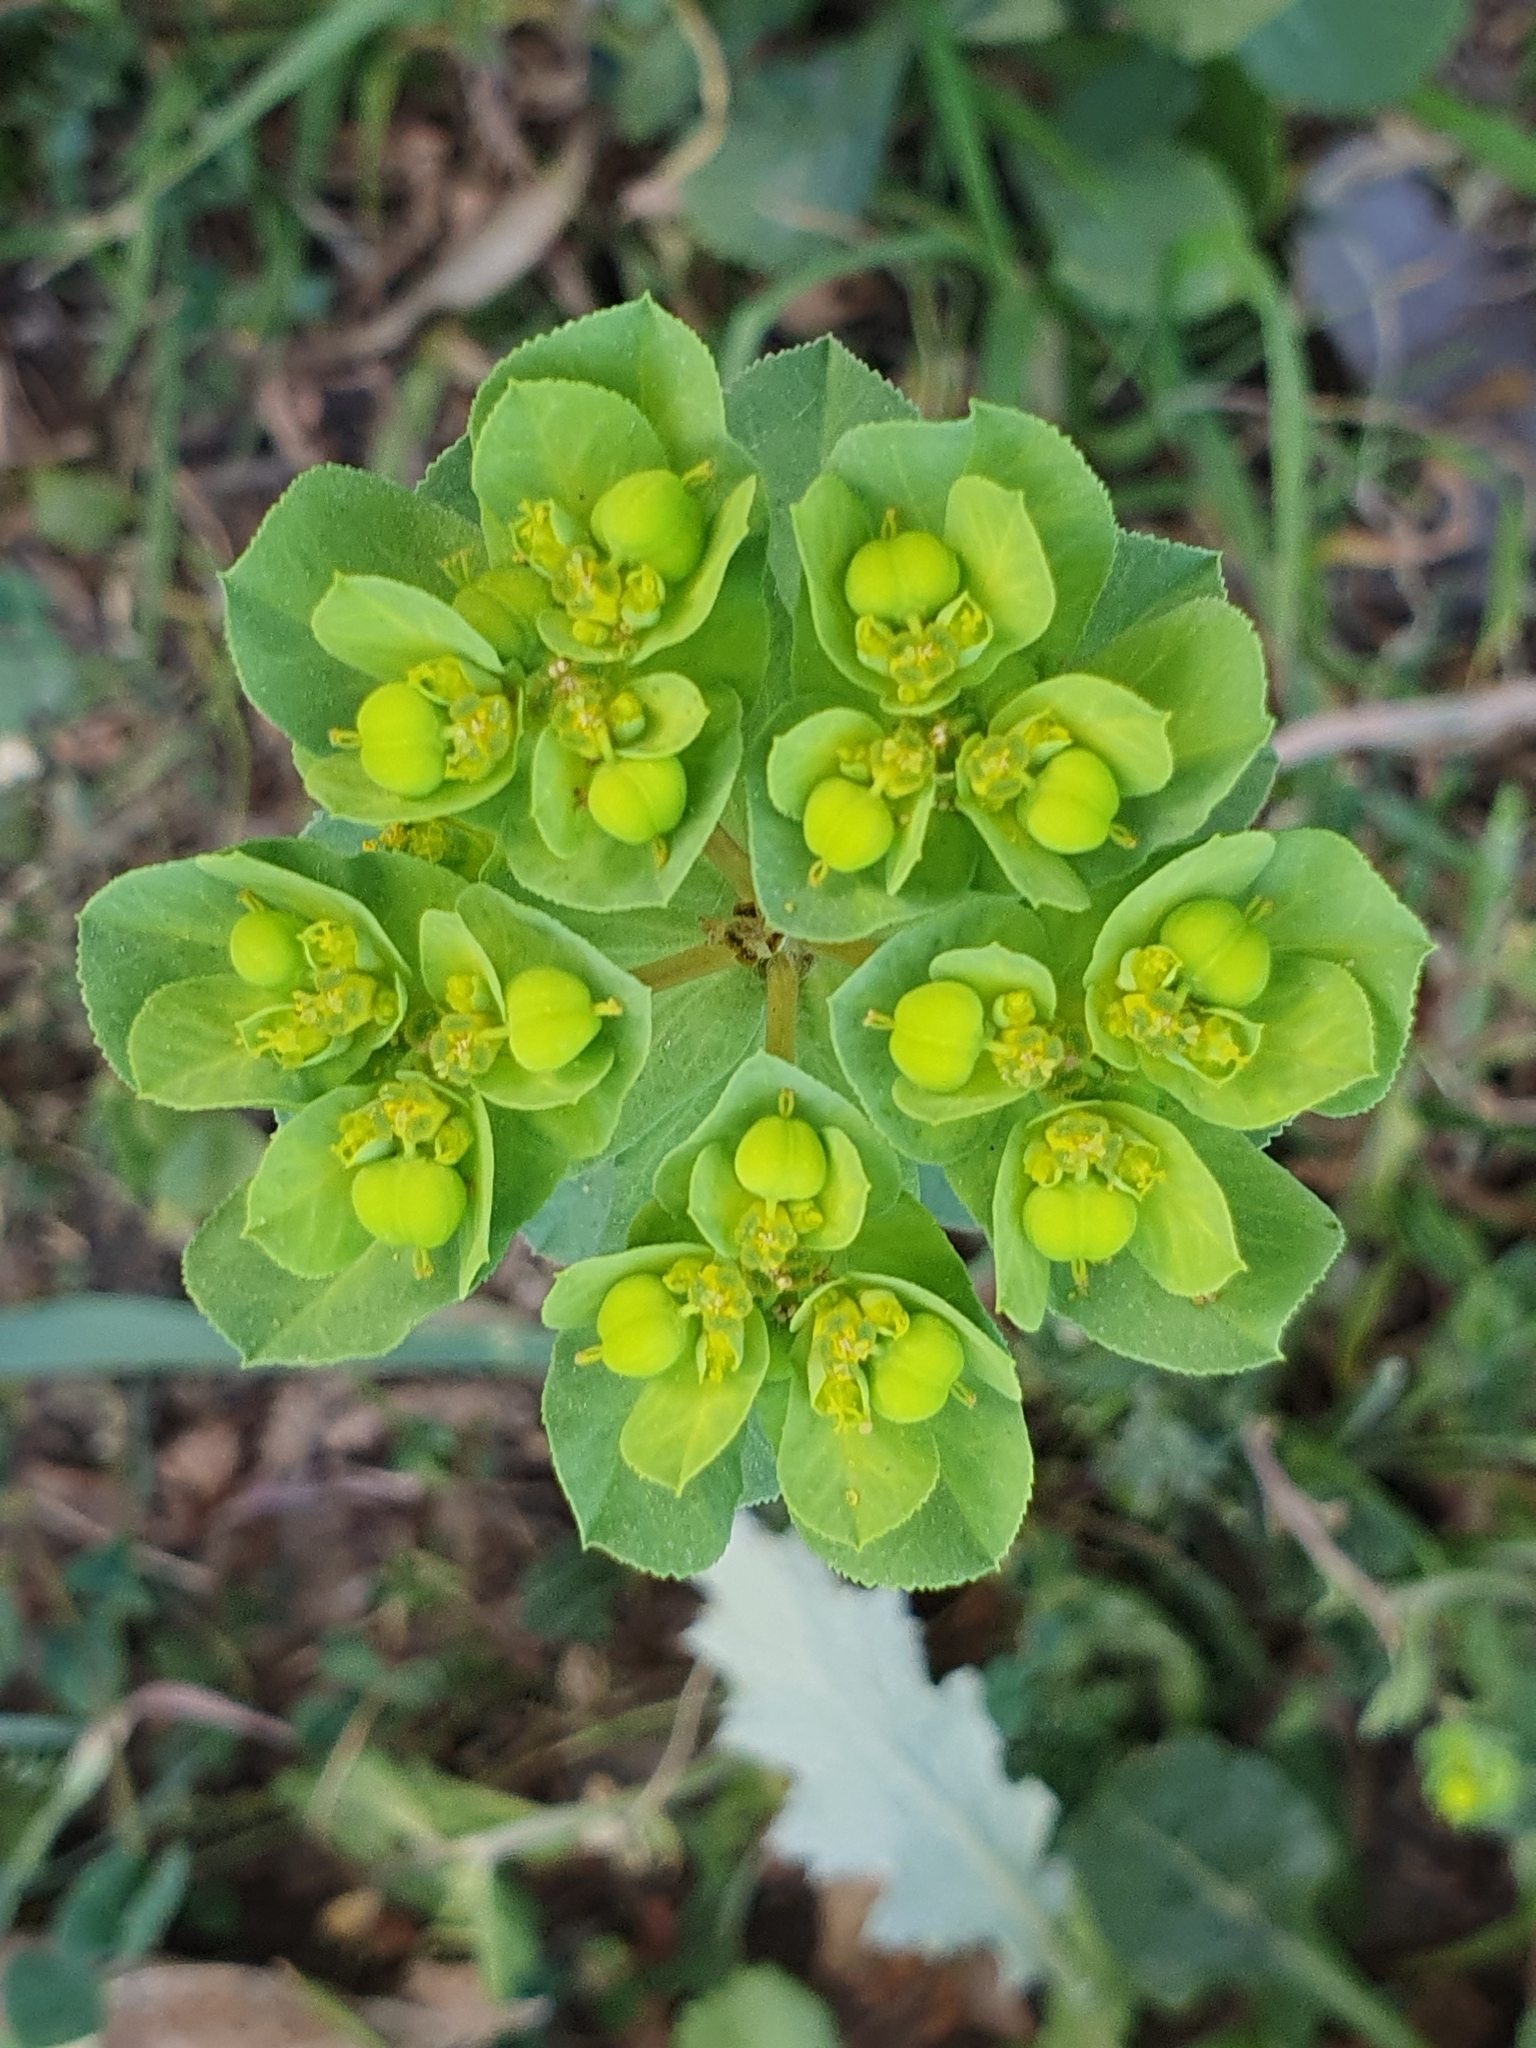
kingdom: Plantae
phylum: Tracheophyta
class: Magnoliopsida
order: Malpighiales
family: Euphorbiaceae
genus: Euphorbia
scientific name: Euphorbia helioscopia
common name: Sun spurge
